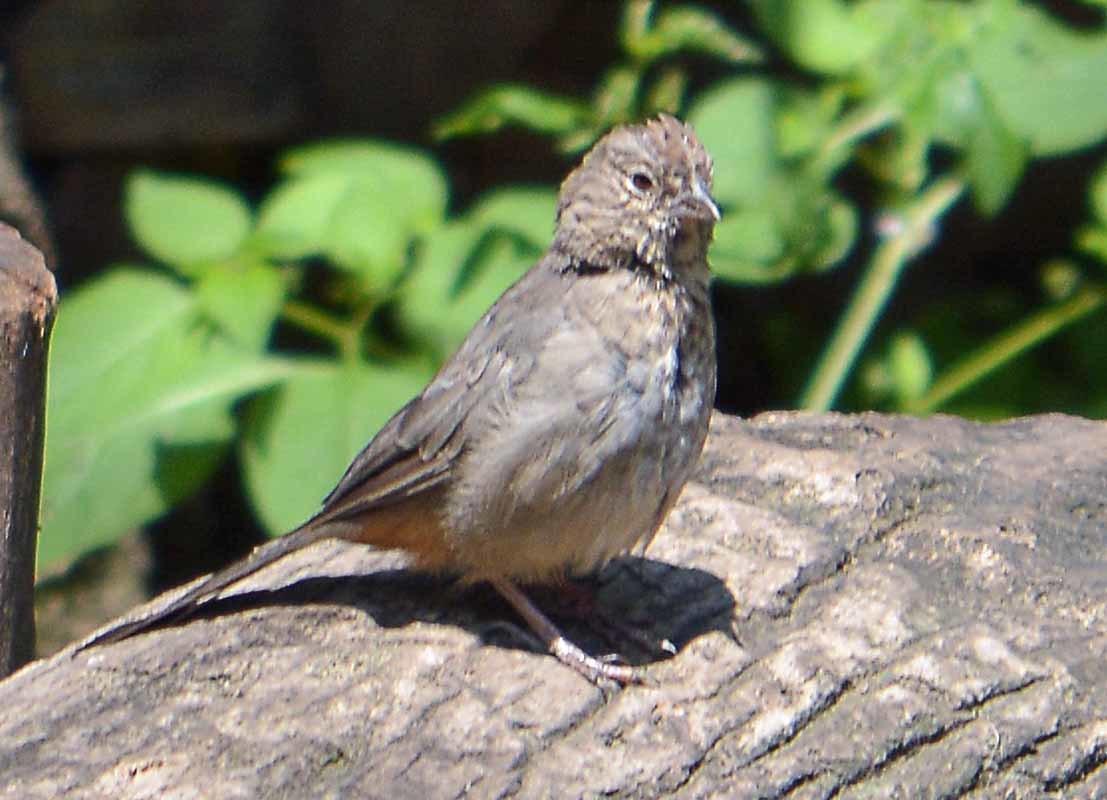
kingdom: Animalia
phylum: Chordata
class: Aves
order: Passeriformes
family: Passerellidae
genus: Melozone
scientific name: Melozone fusca
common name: Canyon towhee
